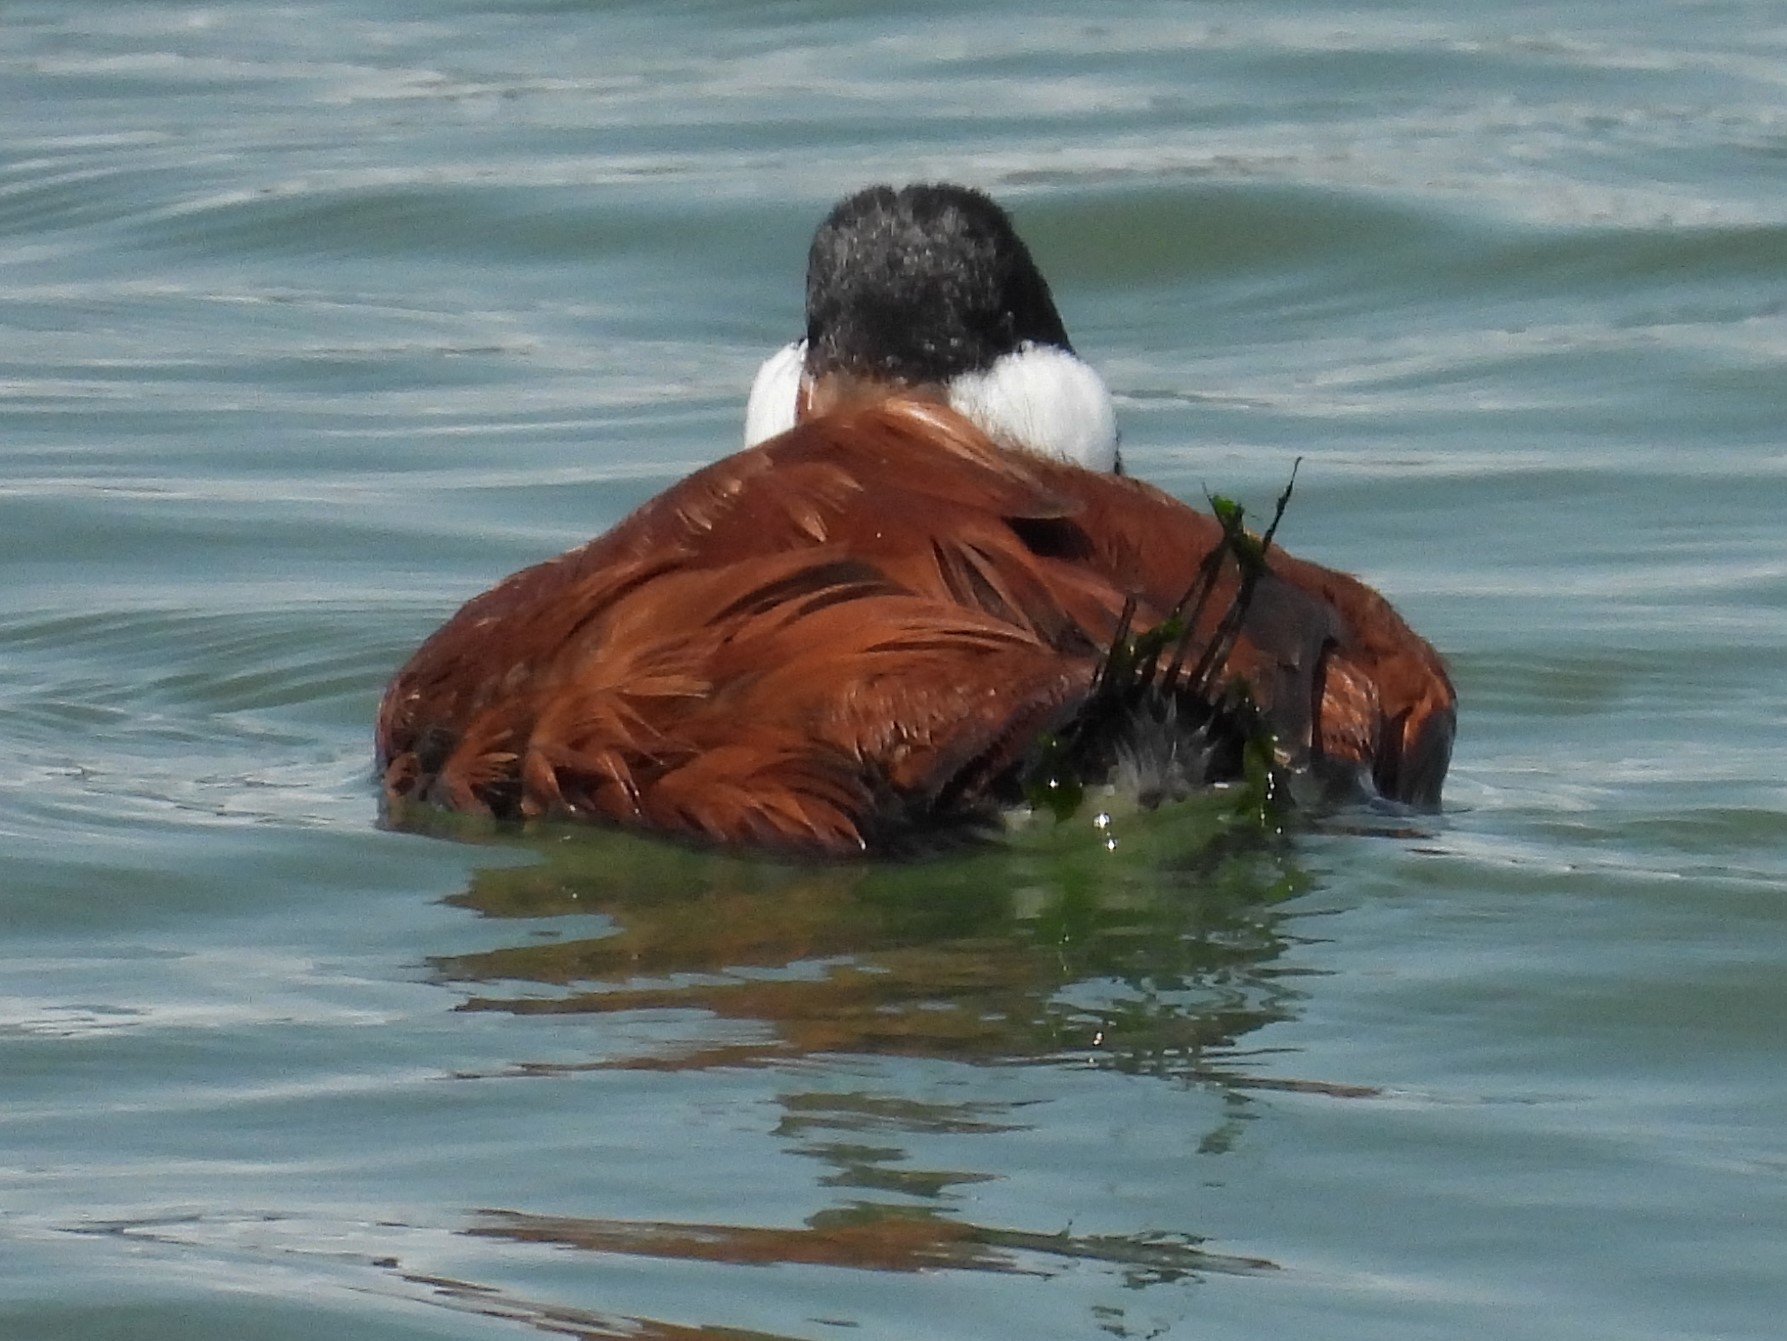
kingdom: Animalia
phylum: Chordata
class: Aves
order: Anseriformes
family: Anatidae
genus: Oxyura
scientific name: Oxyura jamaicensis
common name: Ruddy duck
